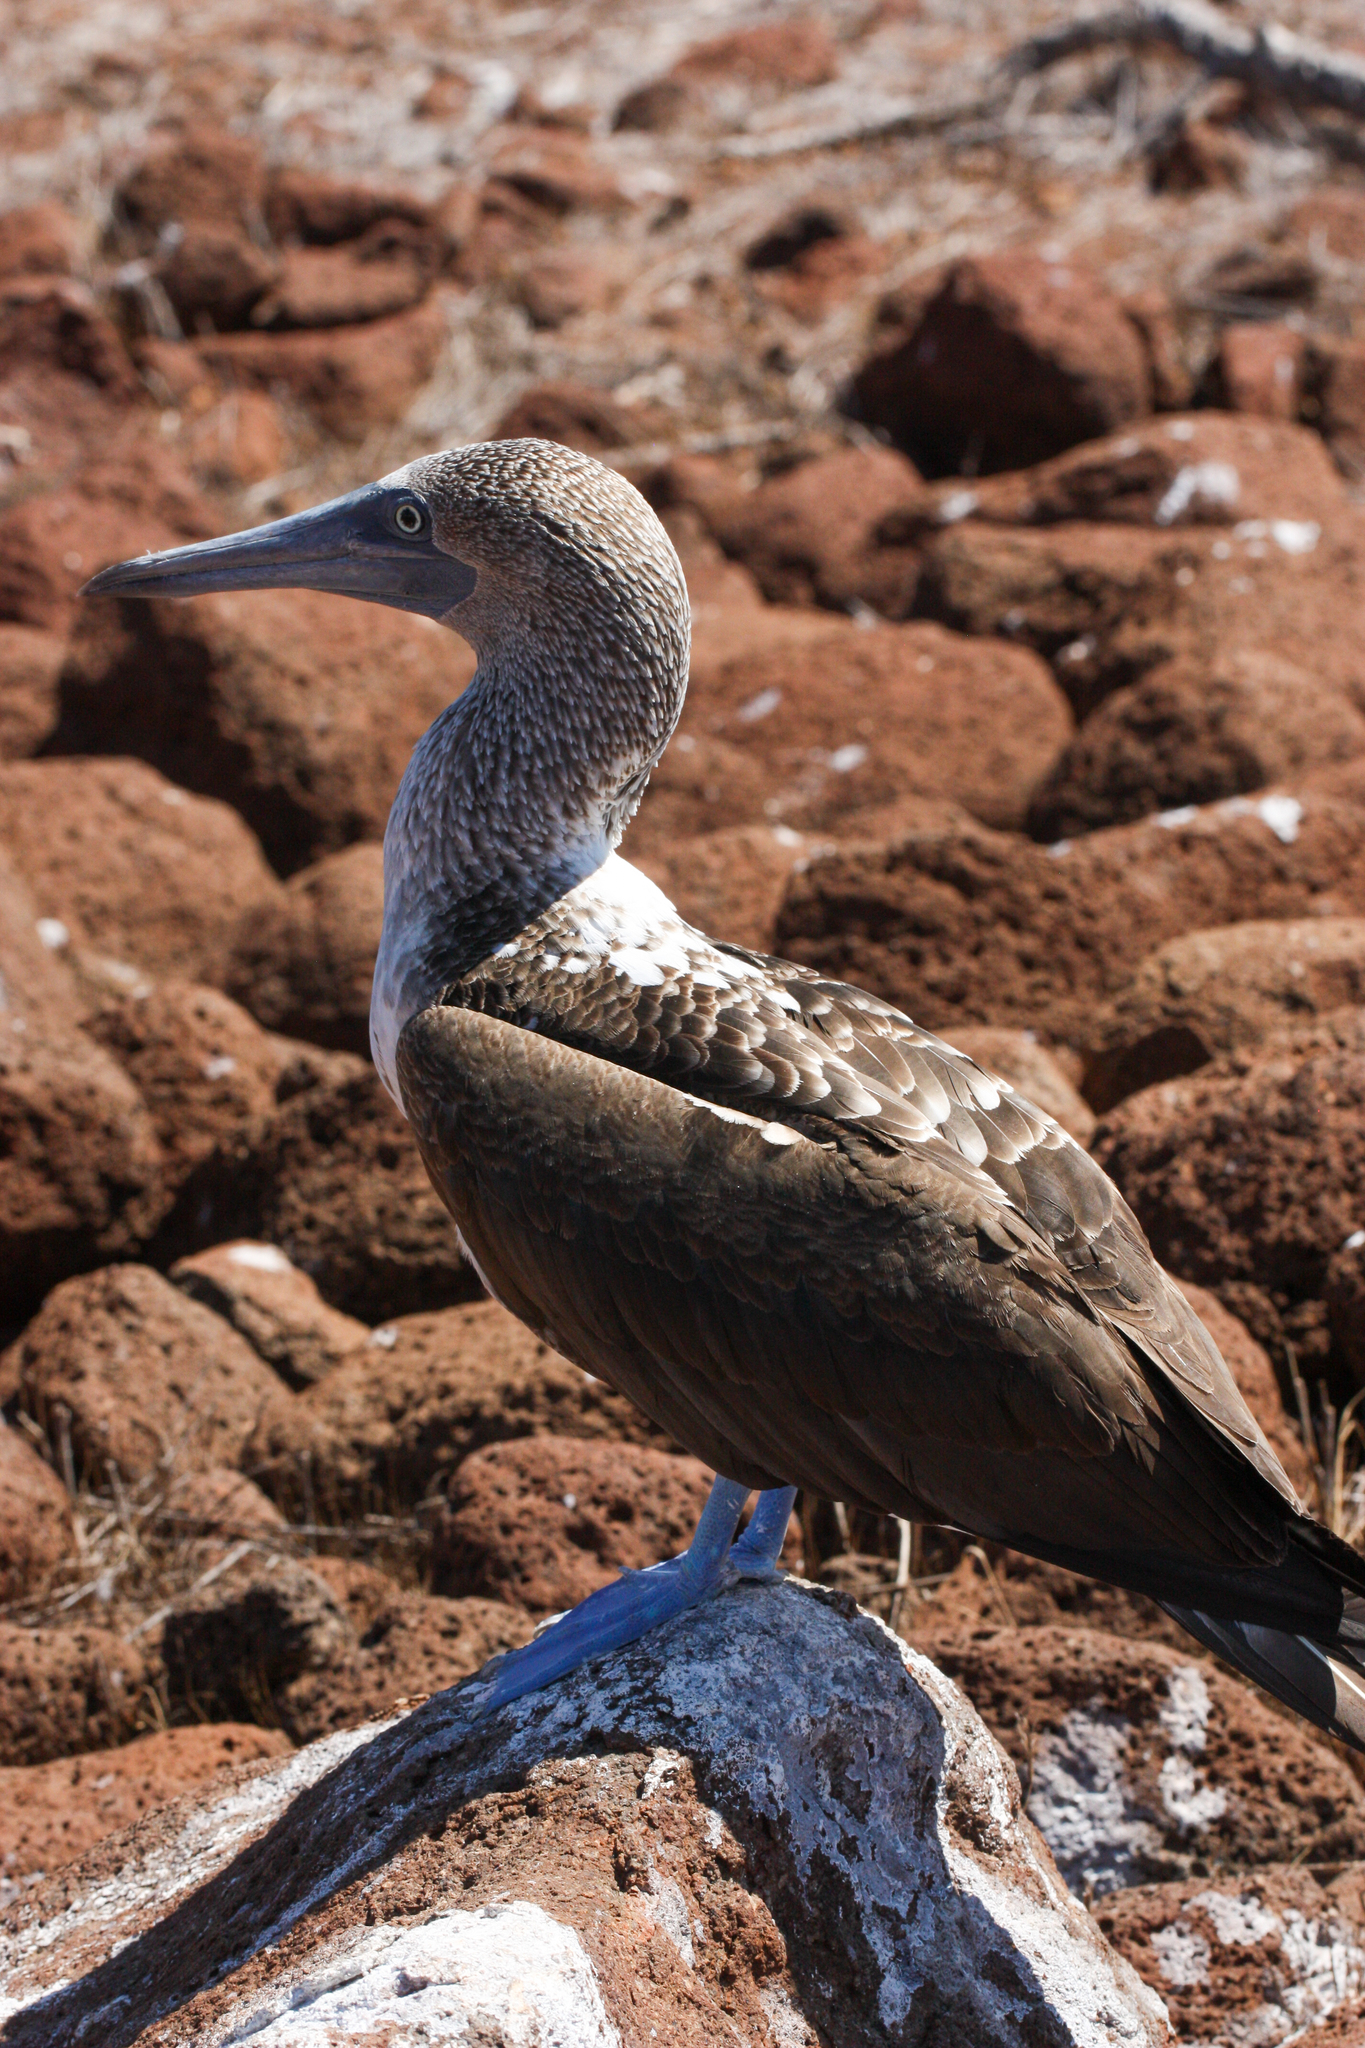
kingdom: Animalia
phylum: Chordata
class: Aves
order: Suliformes
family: Sulidae
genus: Sula
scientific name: Sula nebouxii
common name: Blue-footed booby
